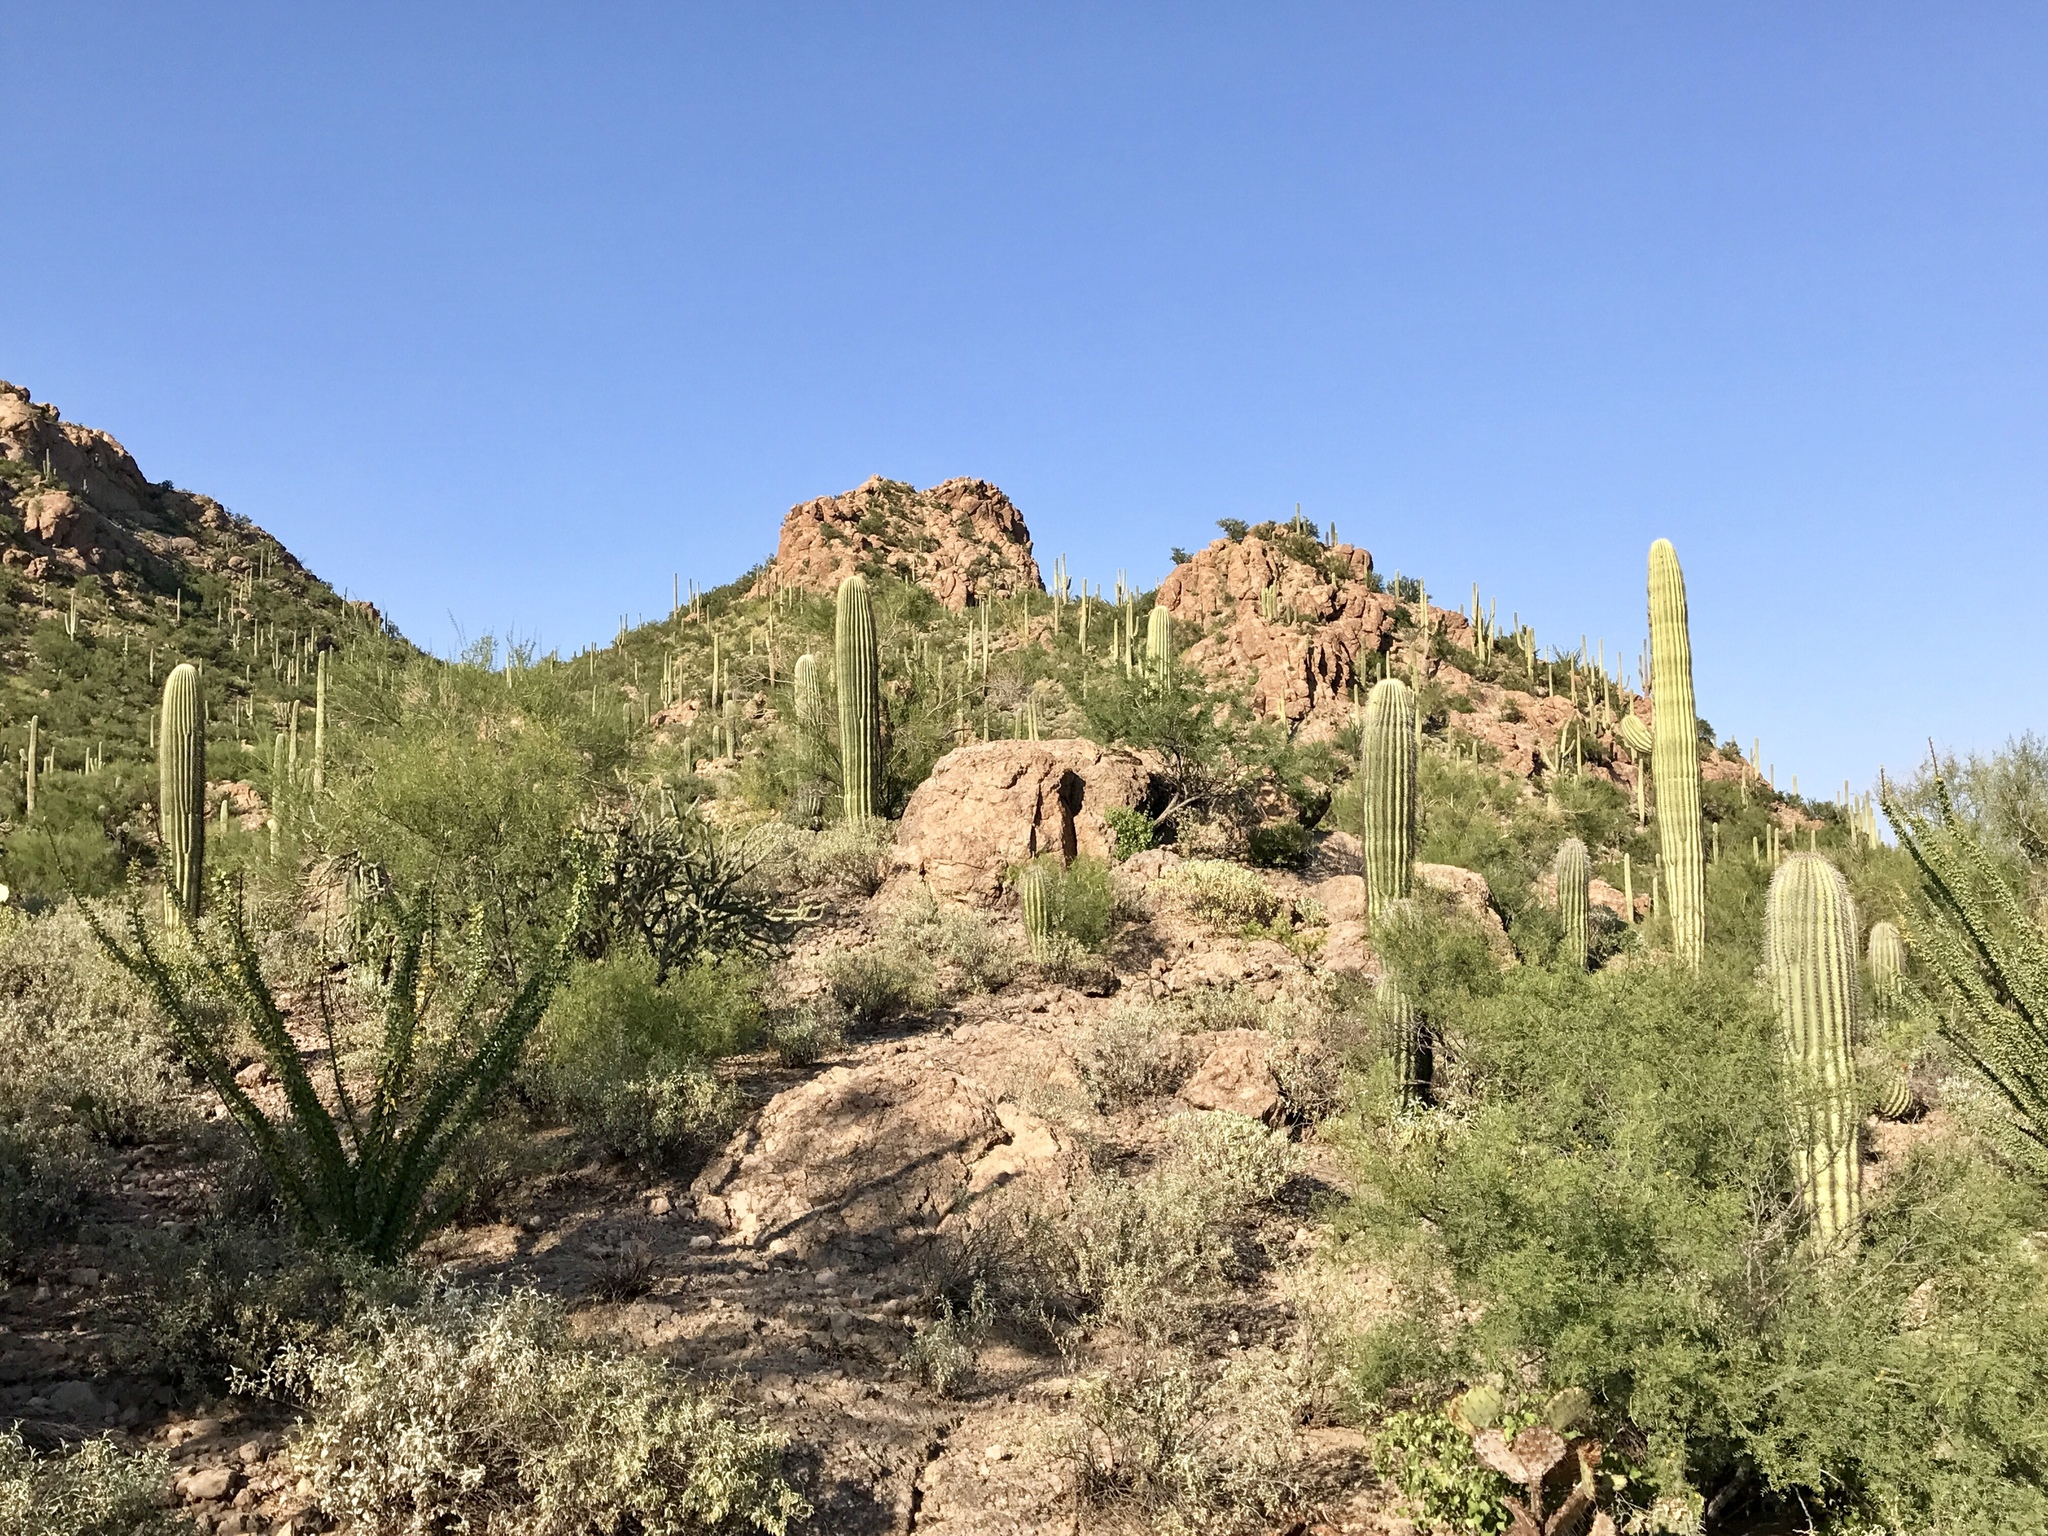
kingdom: Plantae
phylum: Tracheophyta
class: Magnoliopsida
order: Caryophyllales
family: Cactaceae
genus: Carnegiea
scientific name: Carnegiea gigantea
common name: Saguaro
